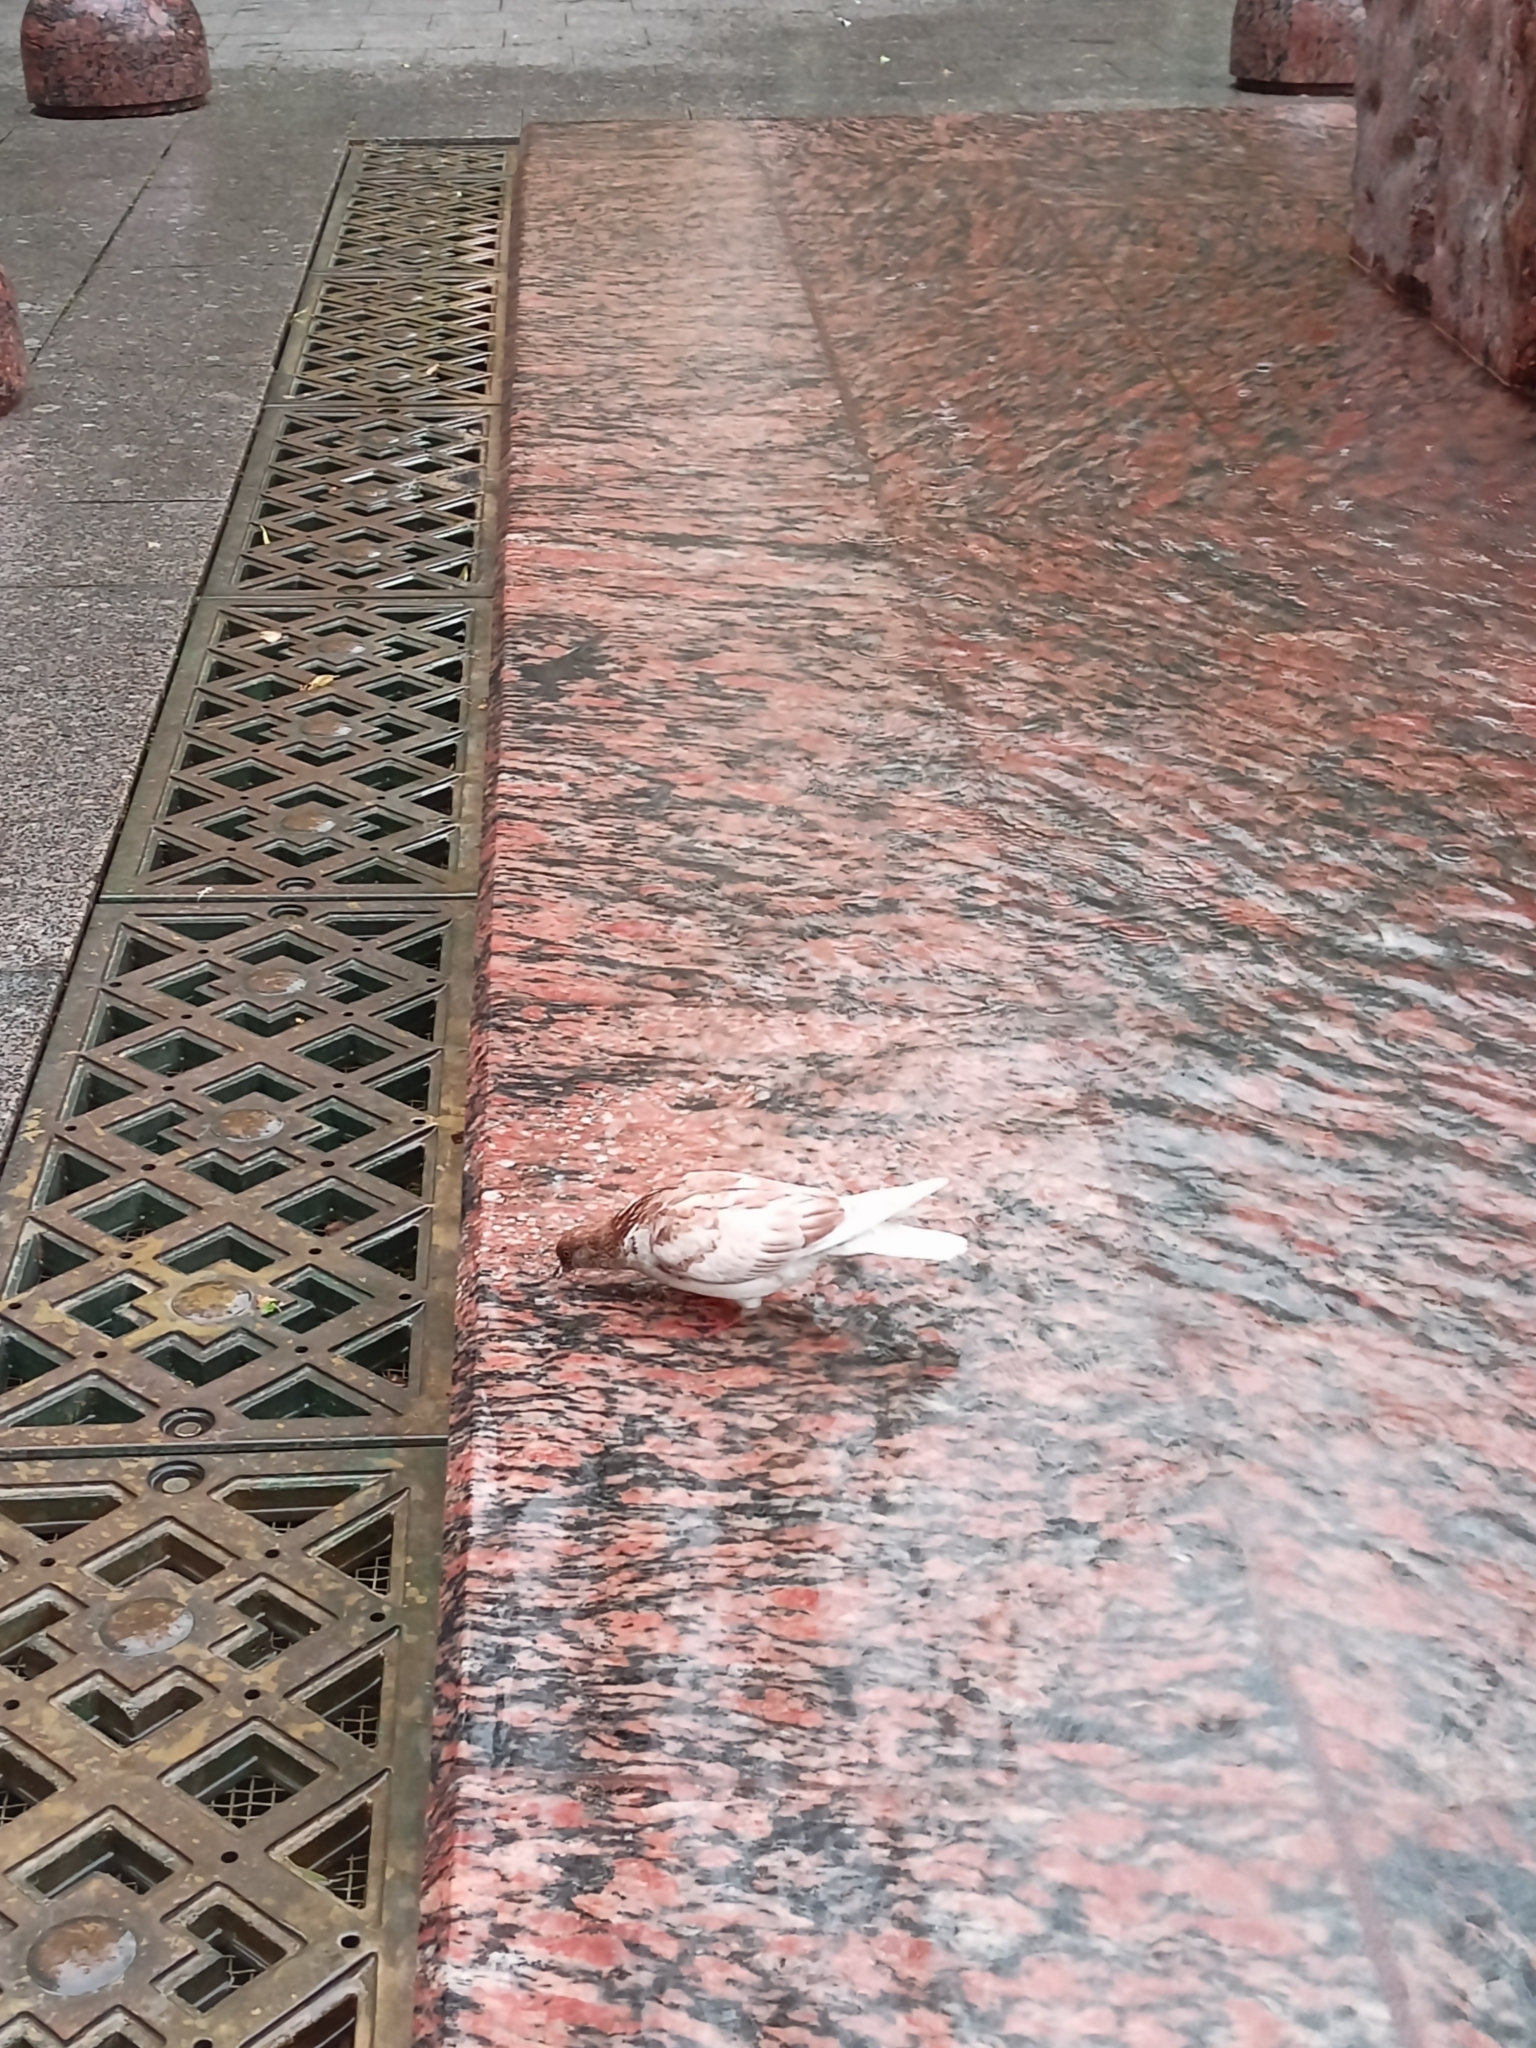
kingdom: Animalia
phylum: Chordata
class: Aves
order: Columbiformes
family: Columbidae
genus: Columba
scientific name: Columba livia
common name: Rock pigeon
